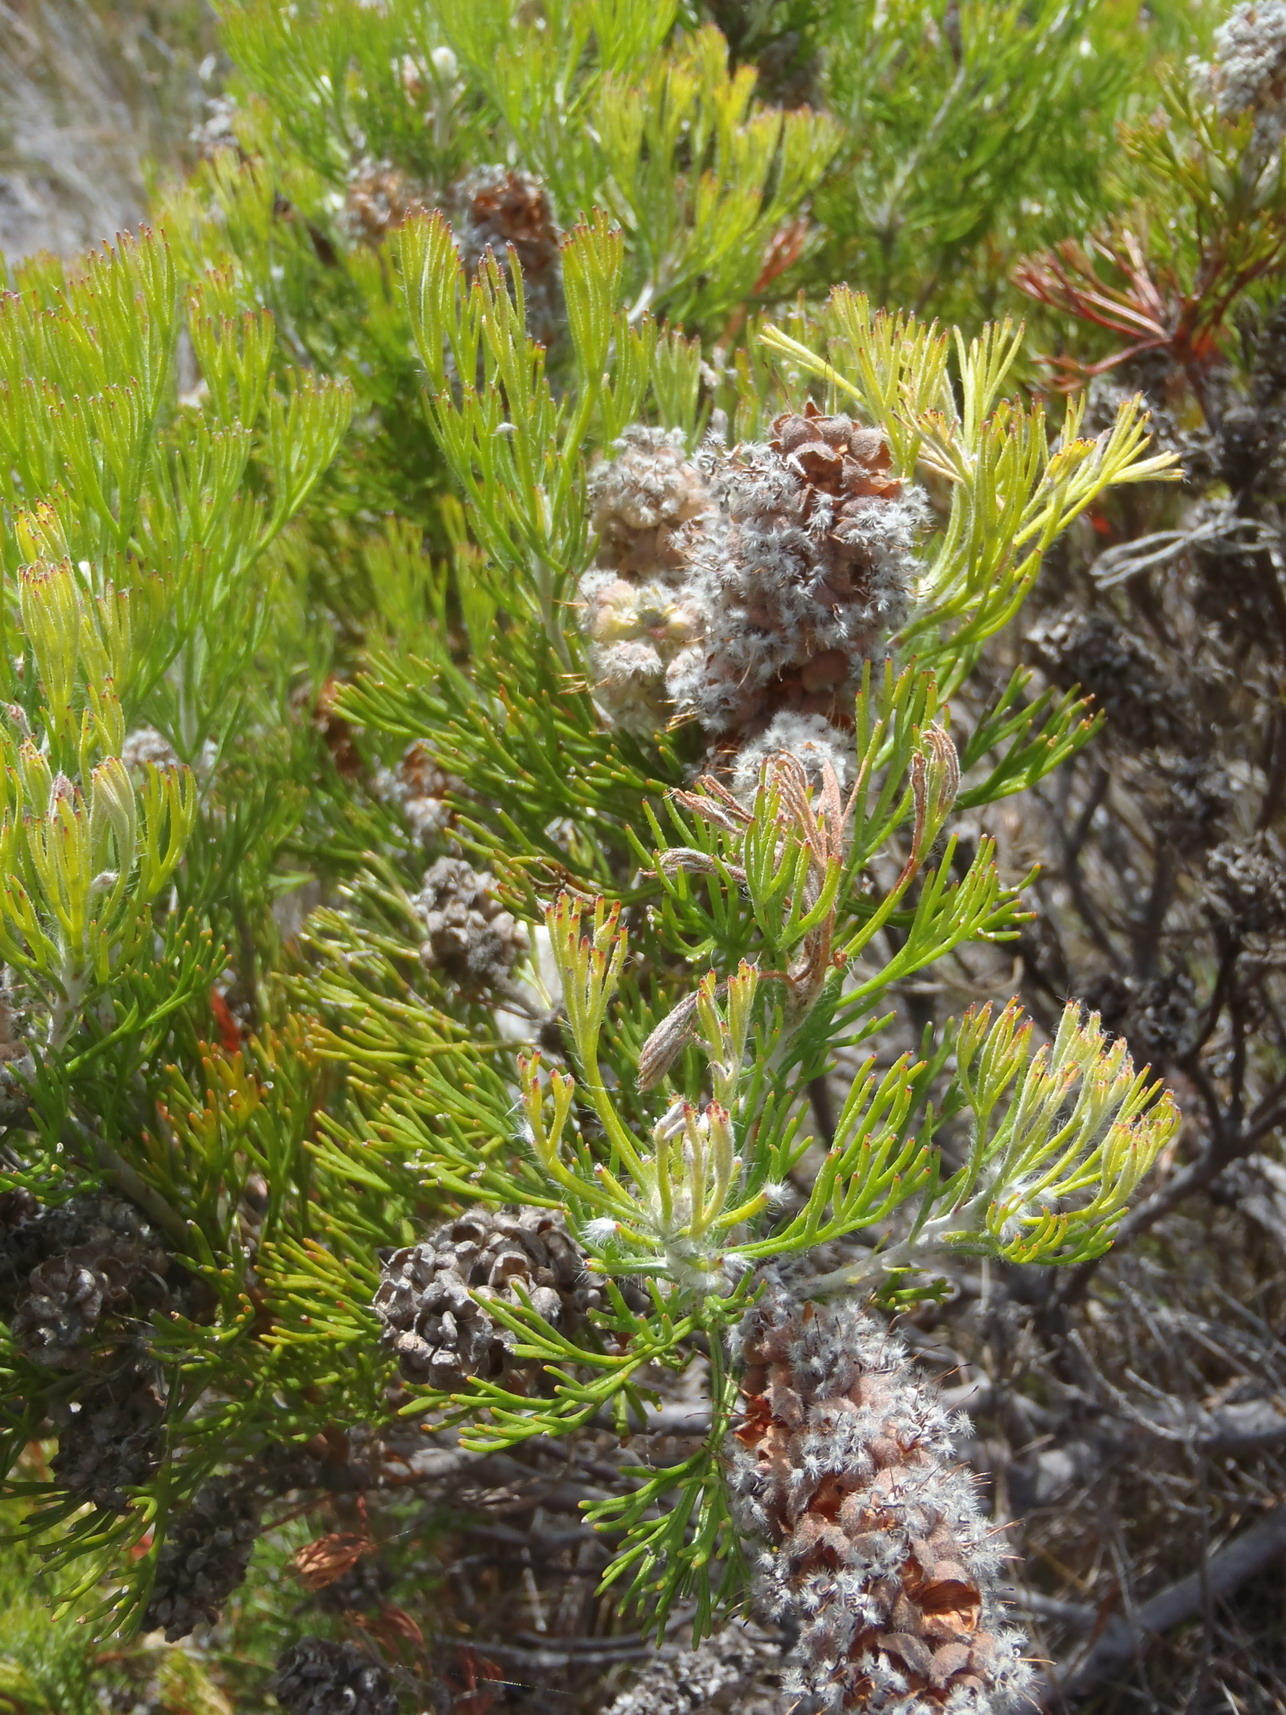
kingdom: Plantae
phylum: Tracheophyta
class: Magnoliopsida
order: Proteales
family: Proteaceae
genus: Paranomus
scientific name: Paranomus abrotanifolius
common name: Bredasdorp sceptre
